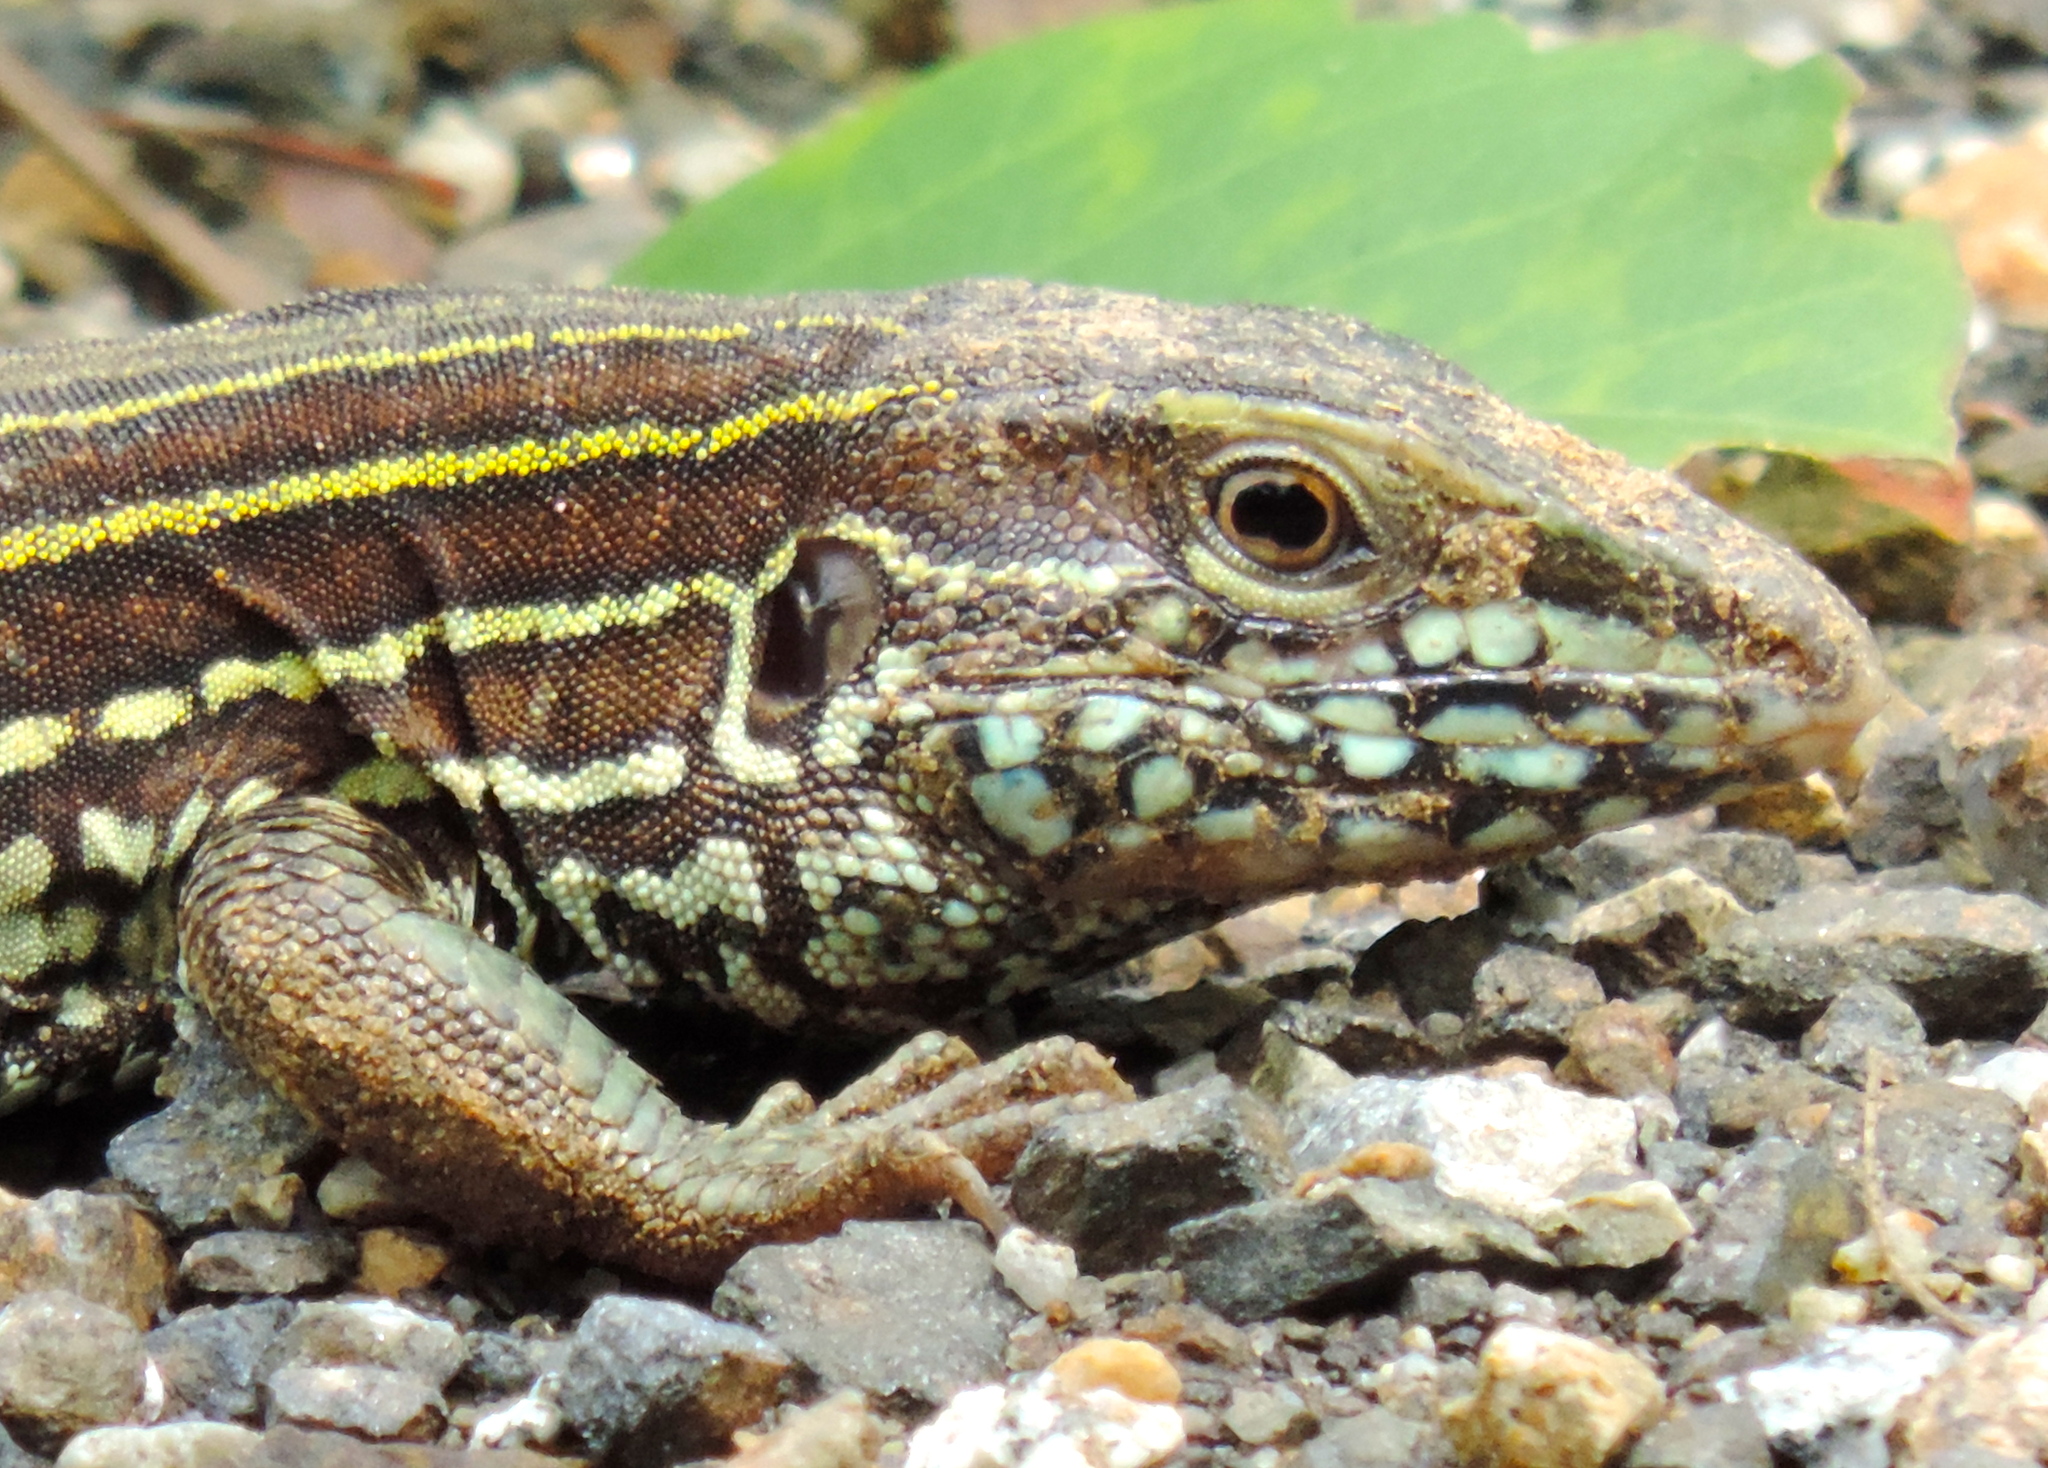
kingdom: Animalia
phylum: Chordata
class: Squamata
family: Teiidae
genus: Aspidoscelis
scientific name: Aspidoscelis costatus
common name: Western mexico whiptail
